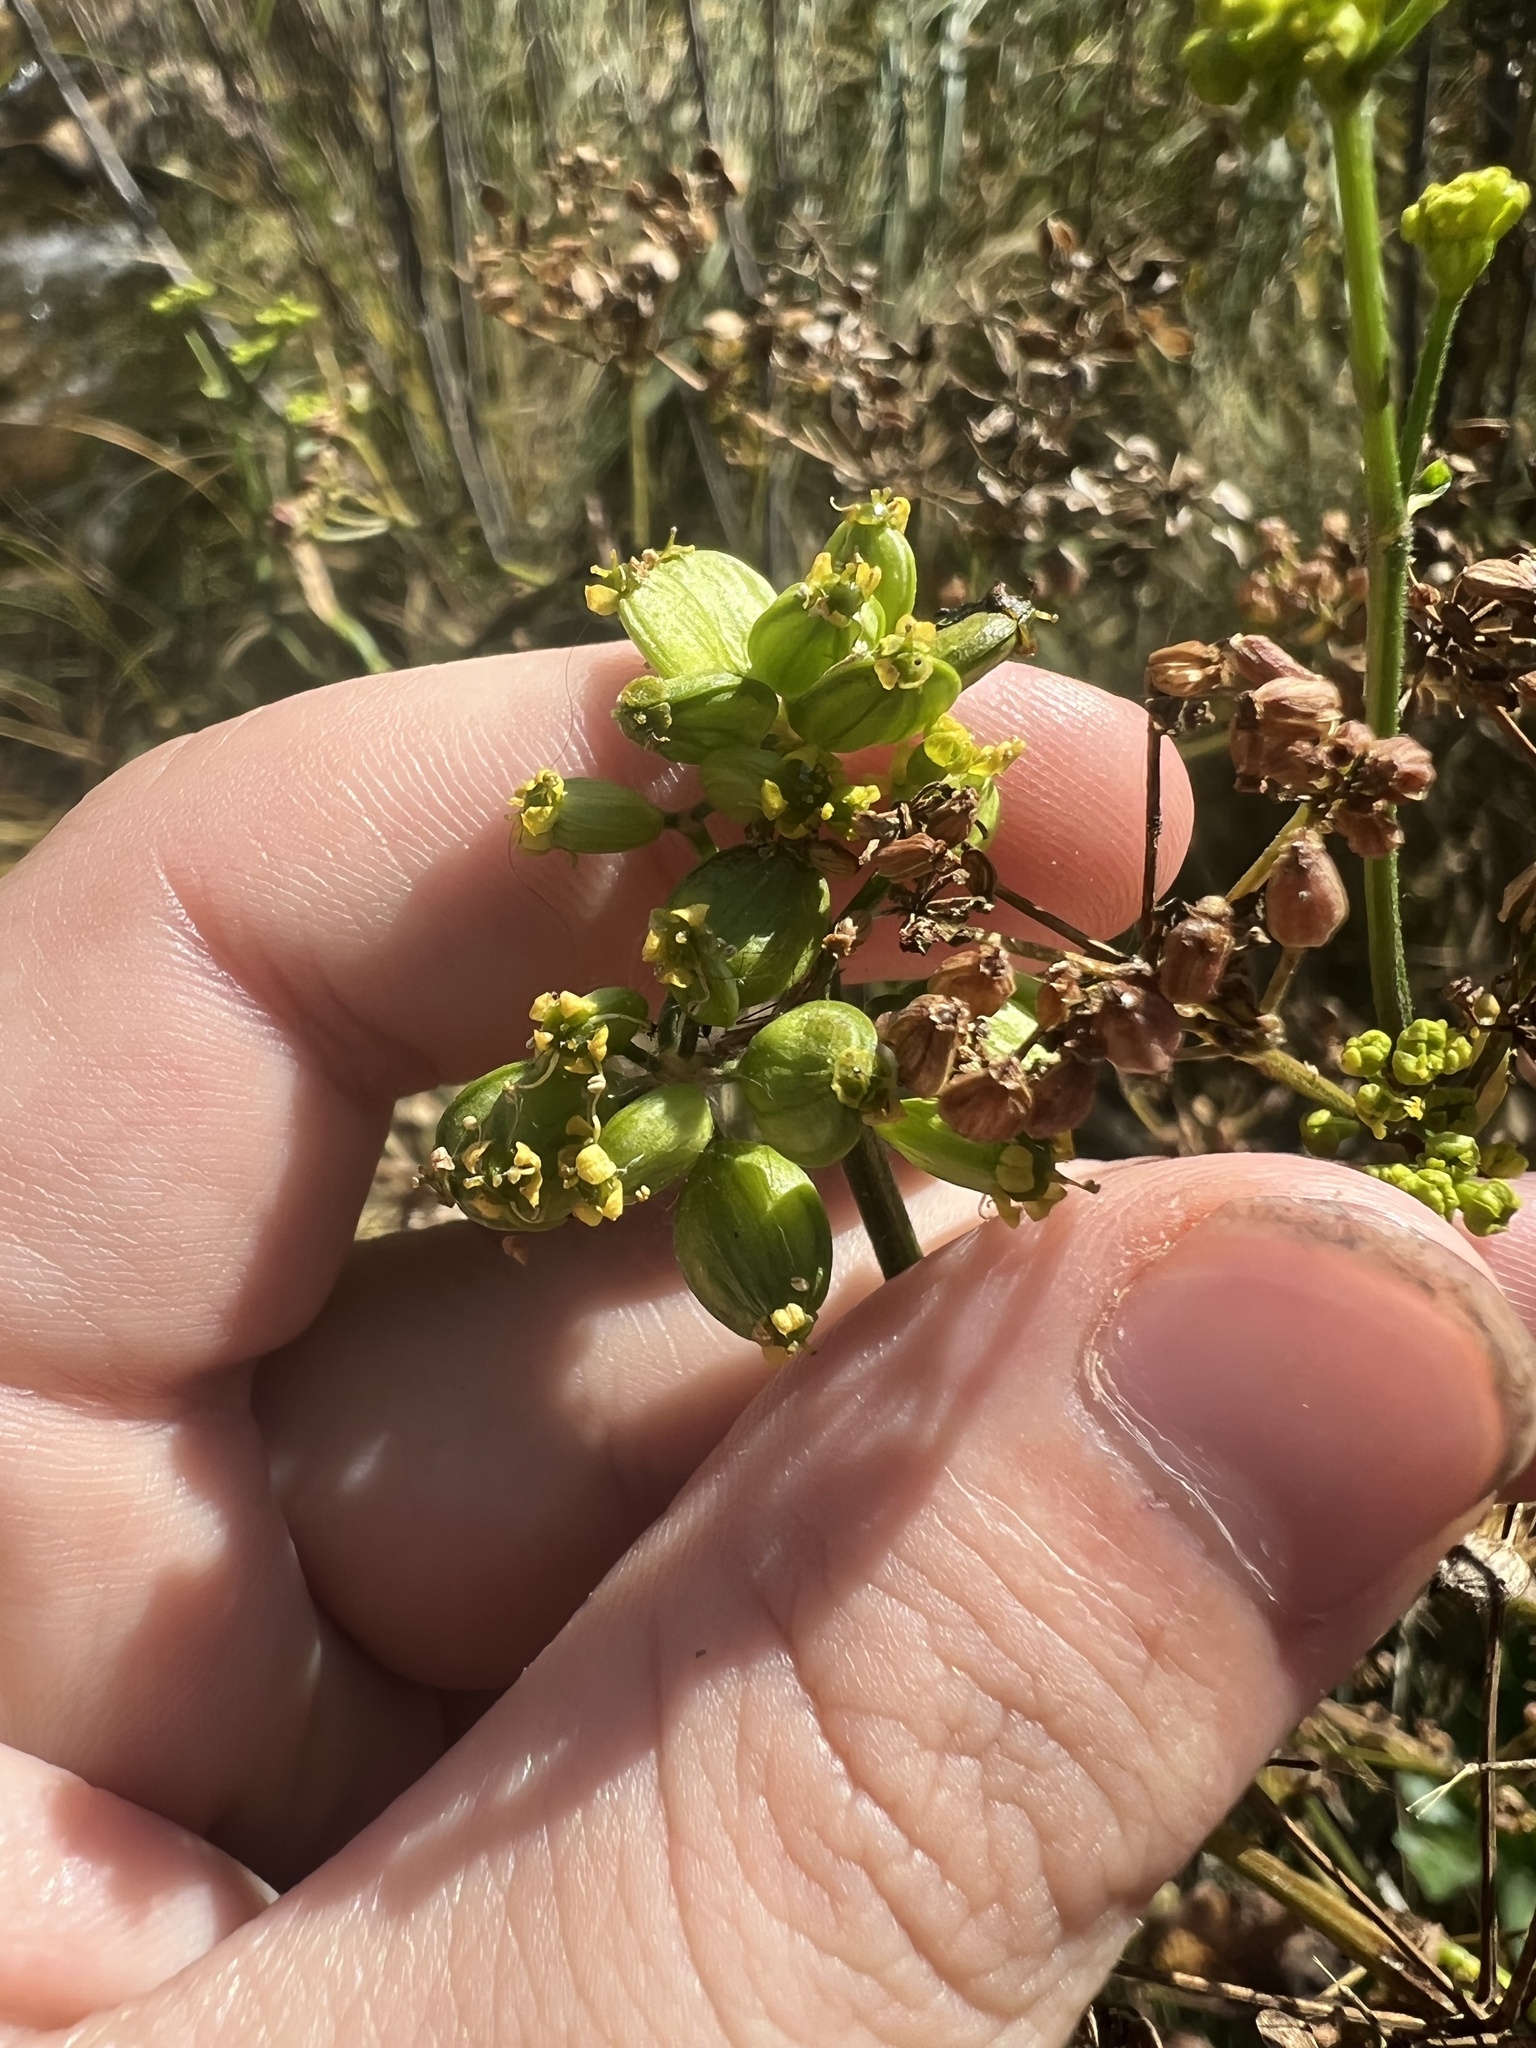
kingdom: Plantae
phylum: Tracheophyta
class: Magnoliopsida
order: Apiales
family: Apiaceae
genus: Pastinaca
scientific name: Pastinaca sativa
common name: Wild parsnip
